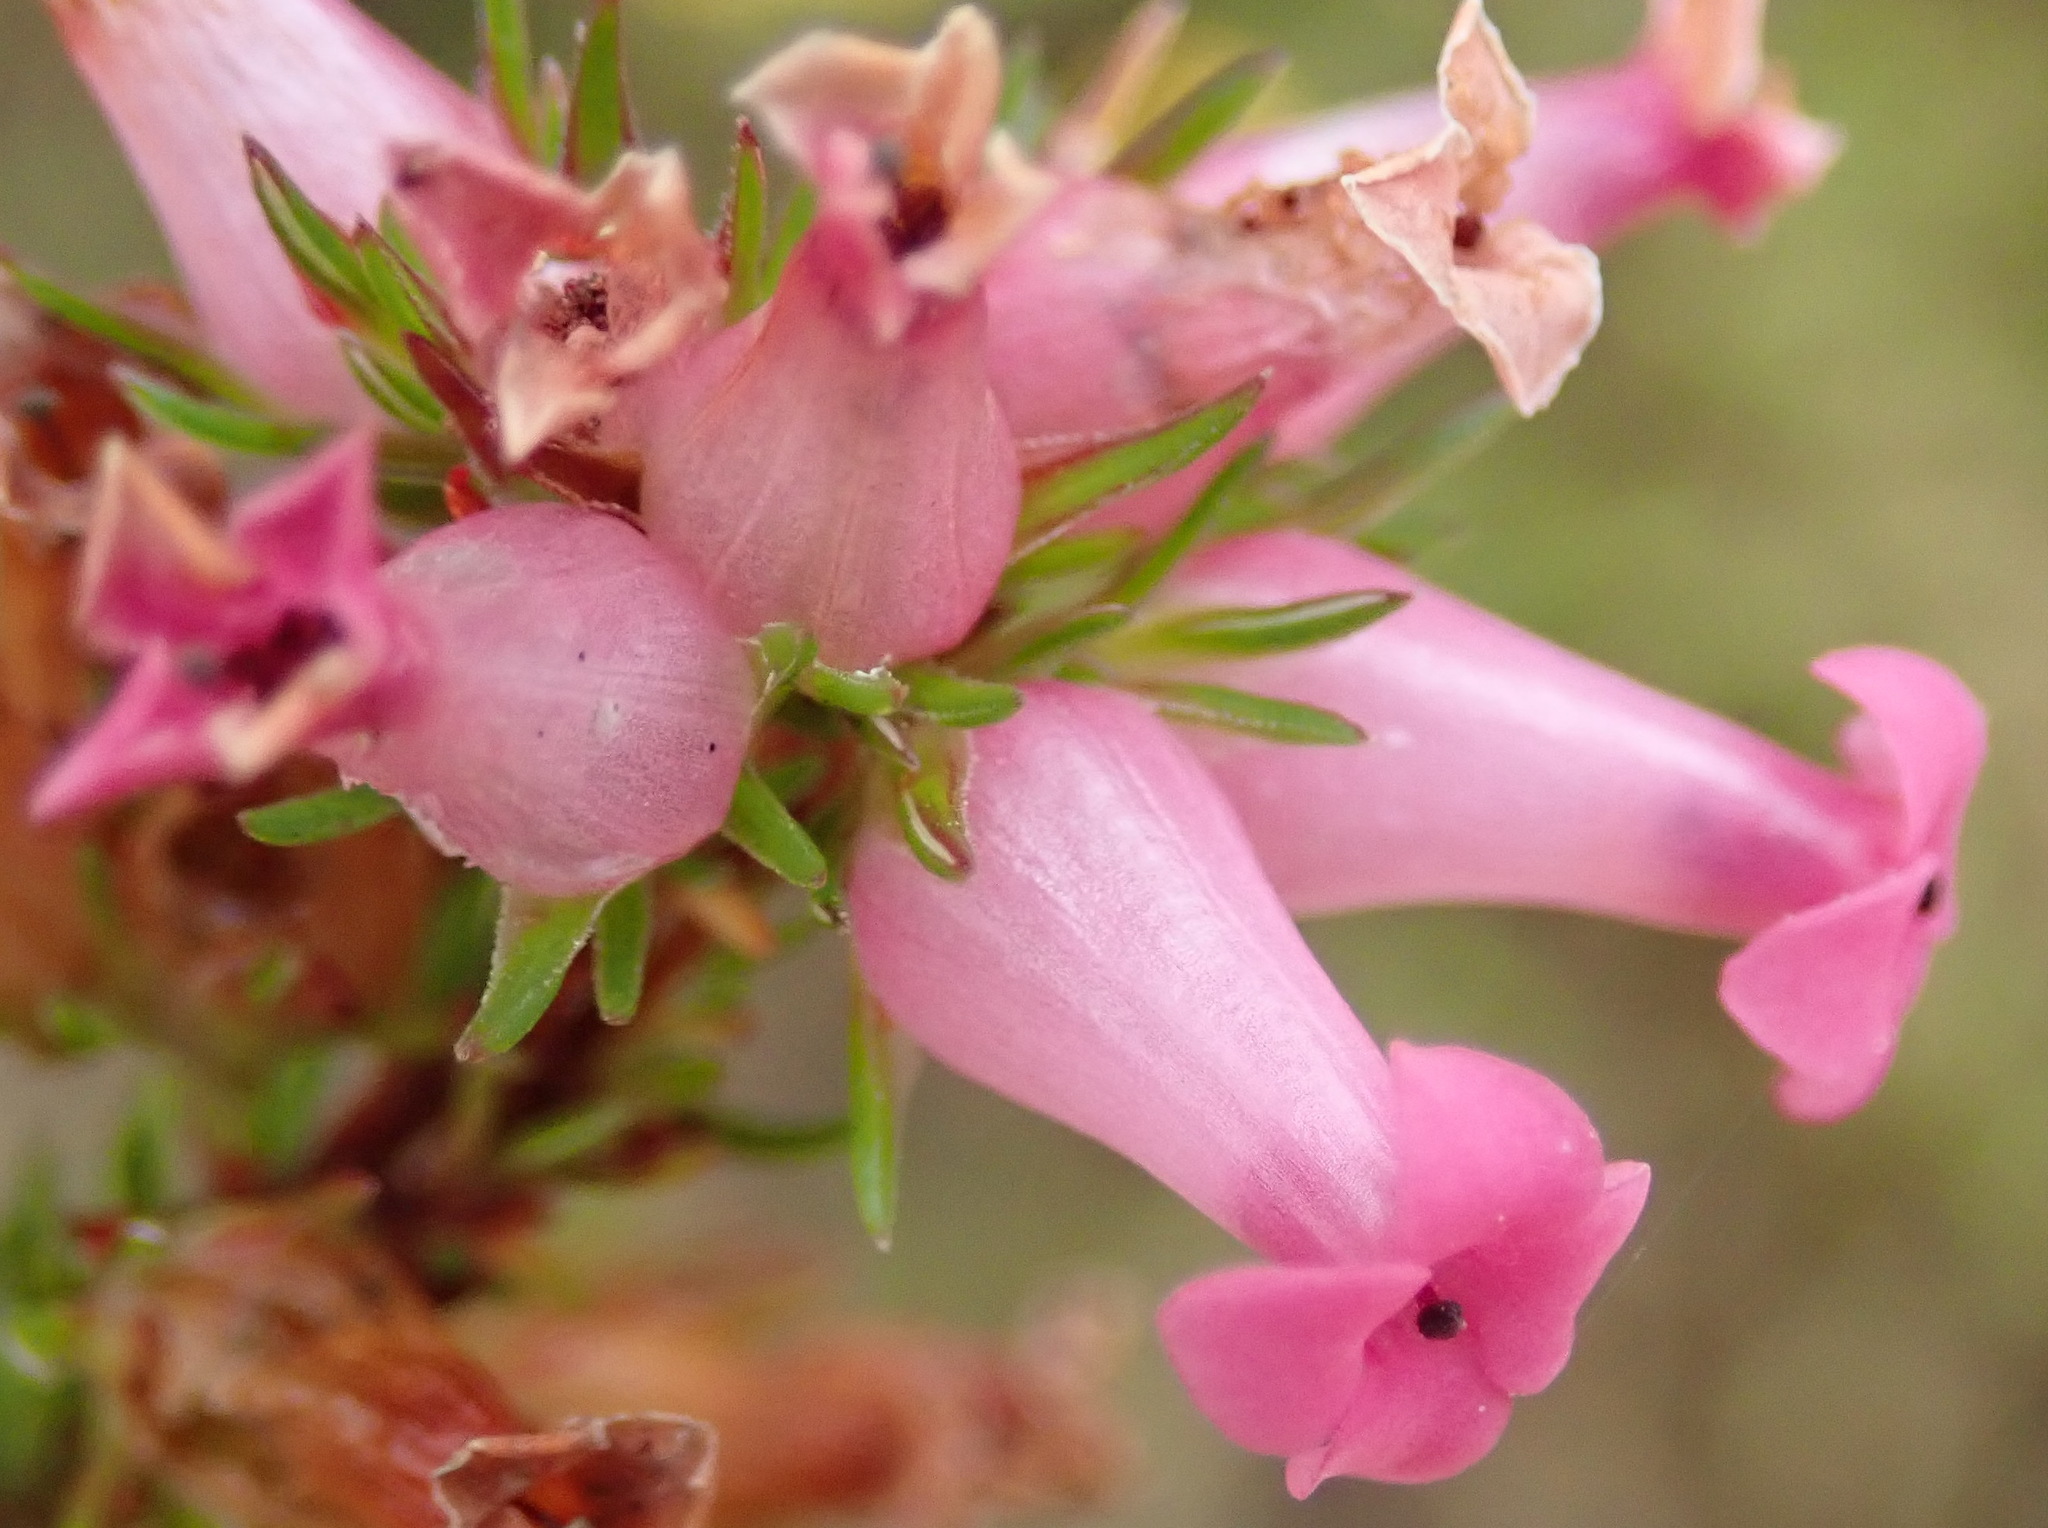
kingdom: Plantae
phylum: Tracheophyta
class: Magnoliopsida
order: Ericales
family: Ericaceae
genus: Erica
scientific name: Erica daphniflora
